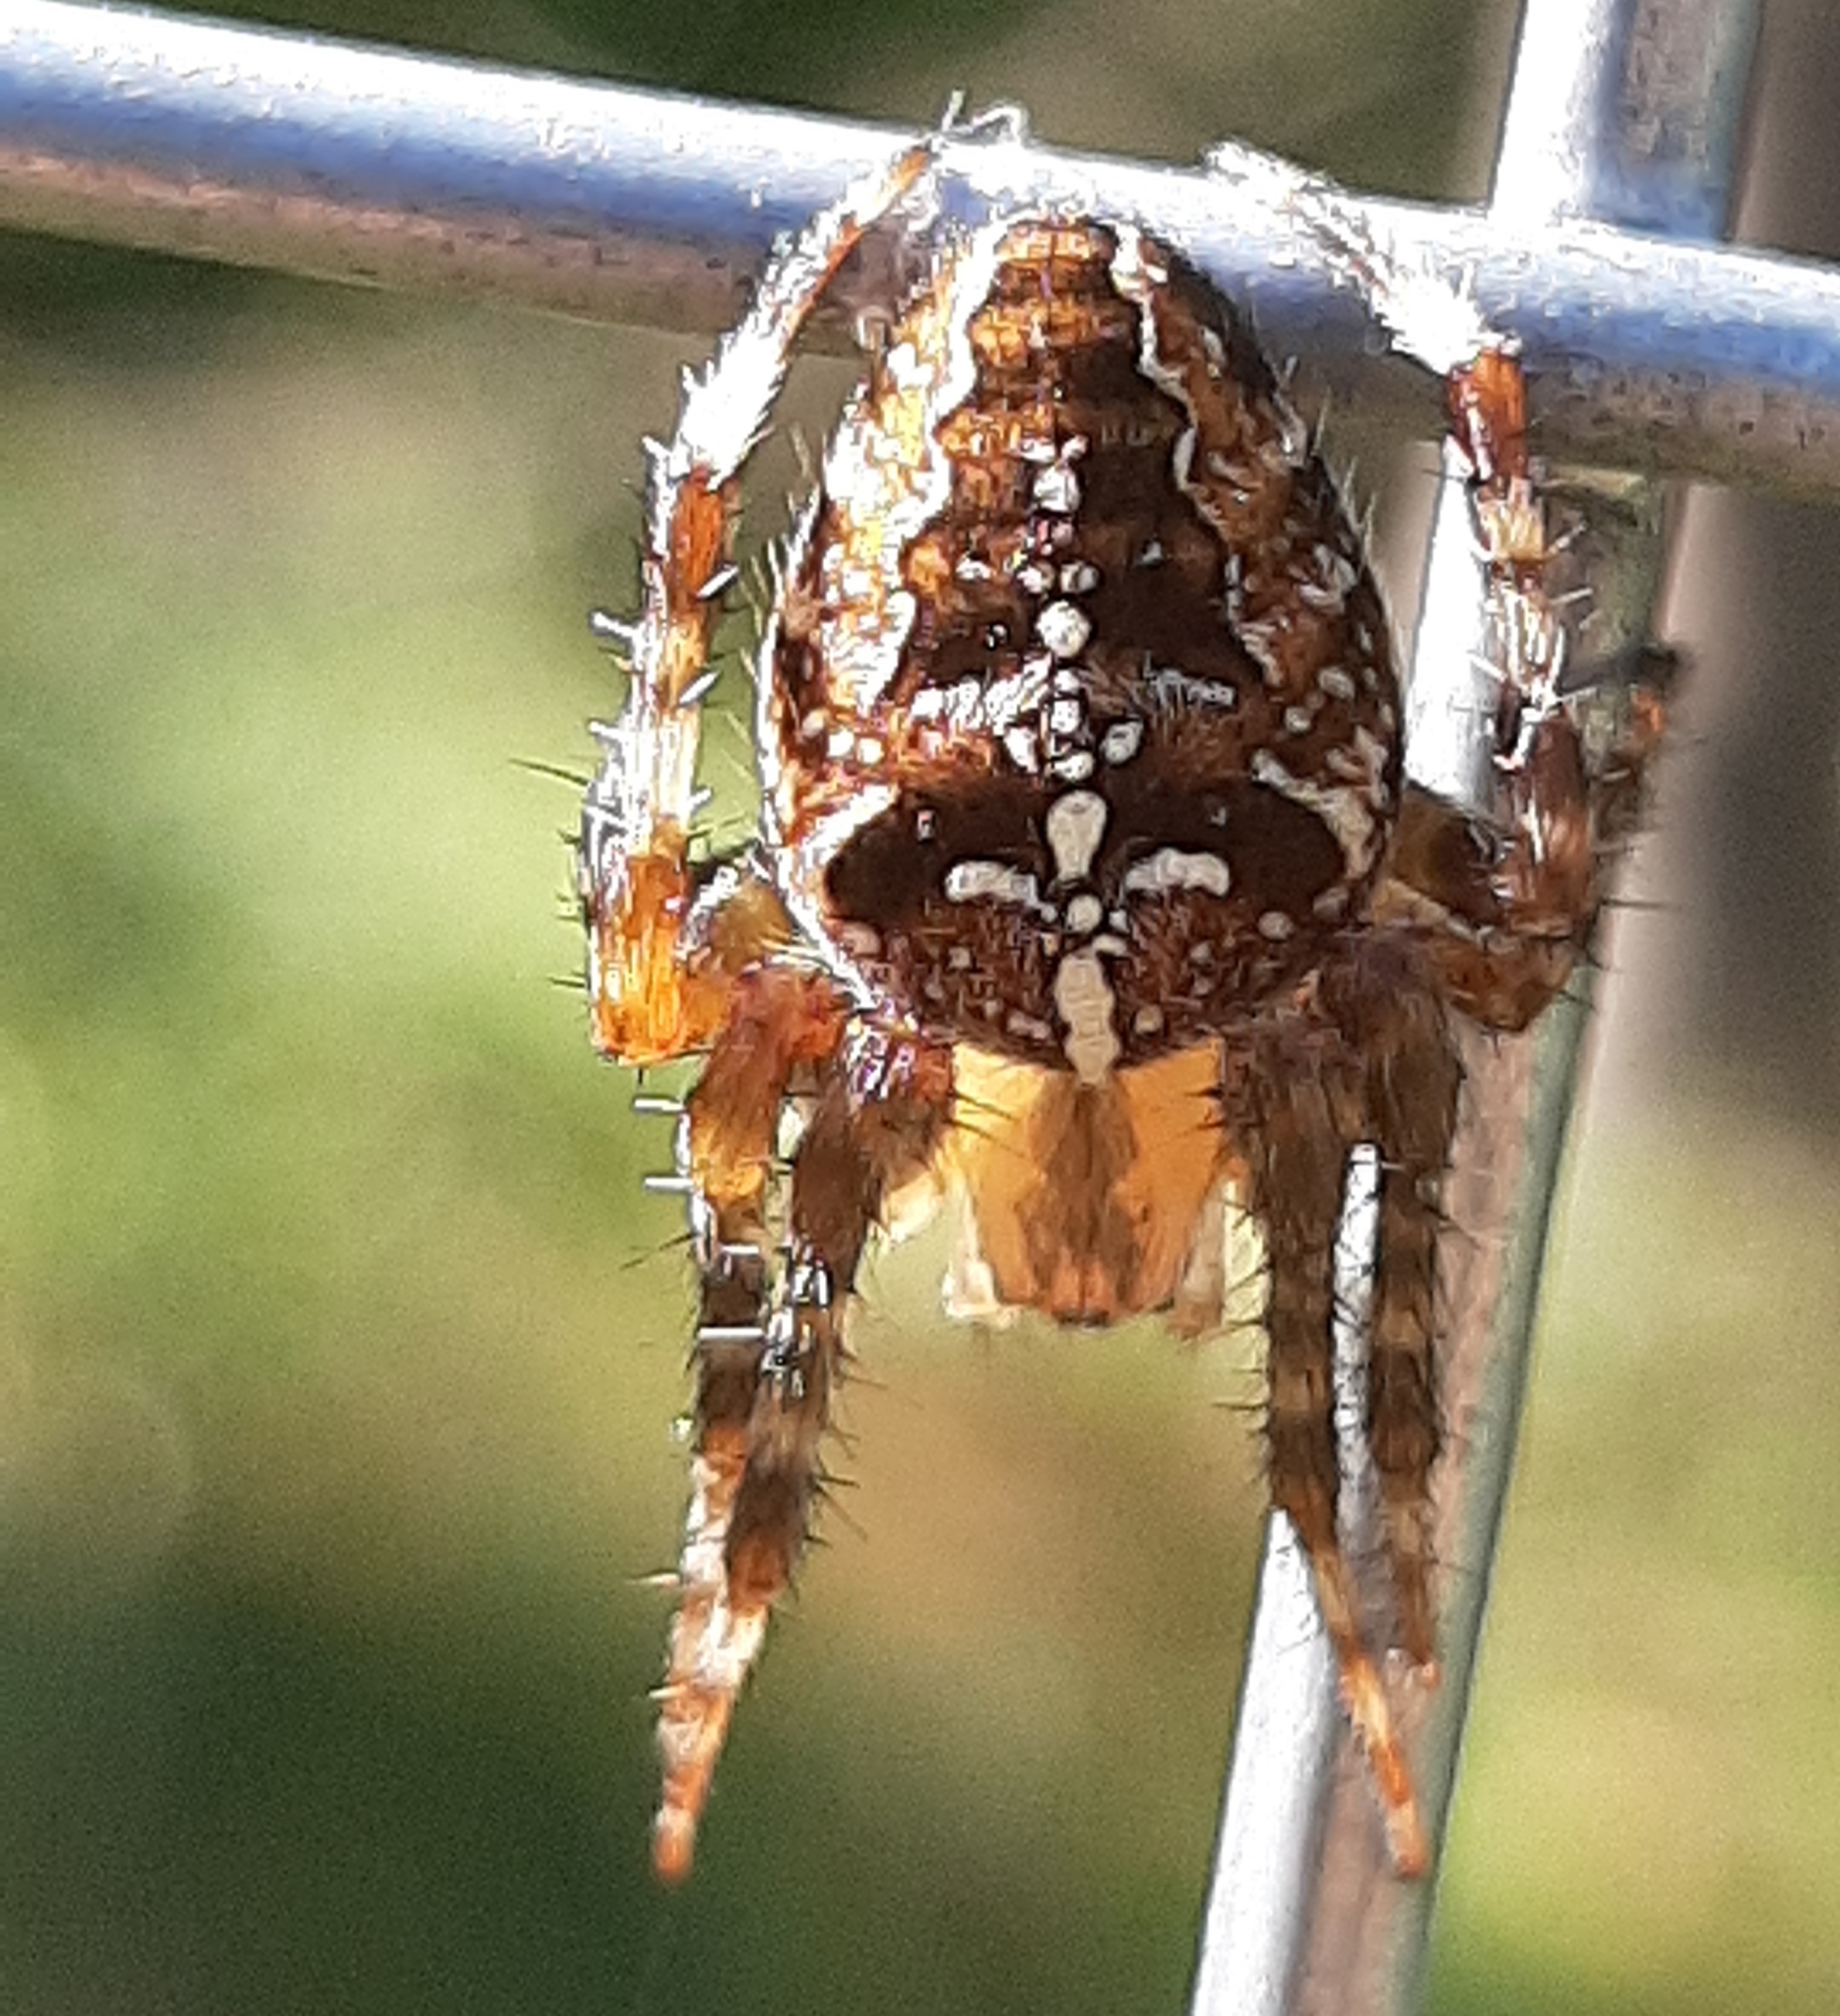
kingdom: Animalia
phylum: Arthropoda
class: Arachnida
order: Araneae
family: Araneidae
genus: Araneus
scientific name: Araneus diadematus
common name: Cross orbweaver
